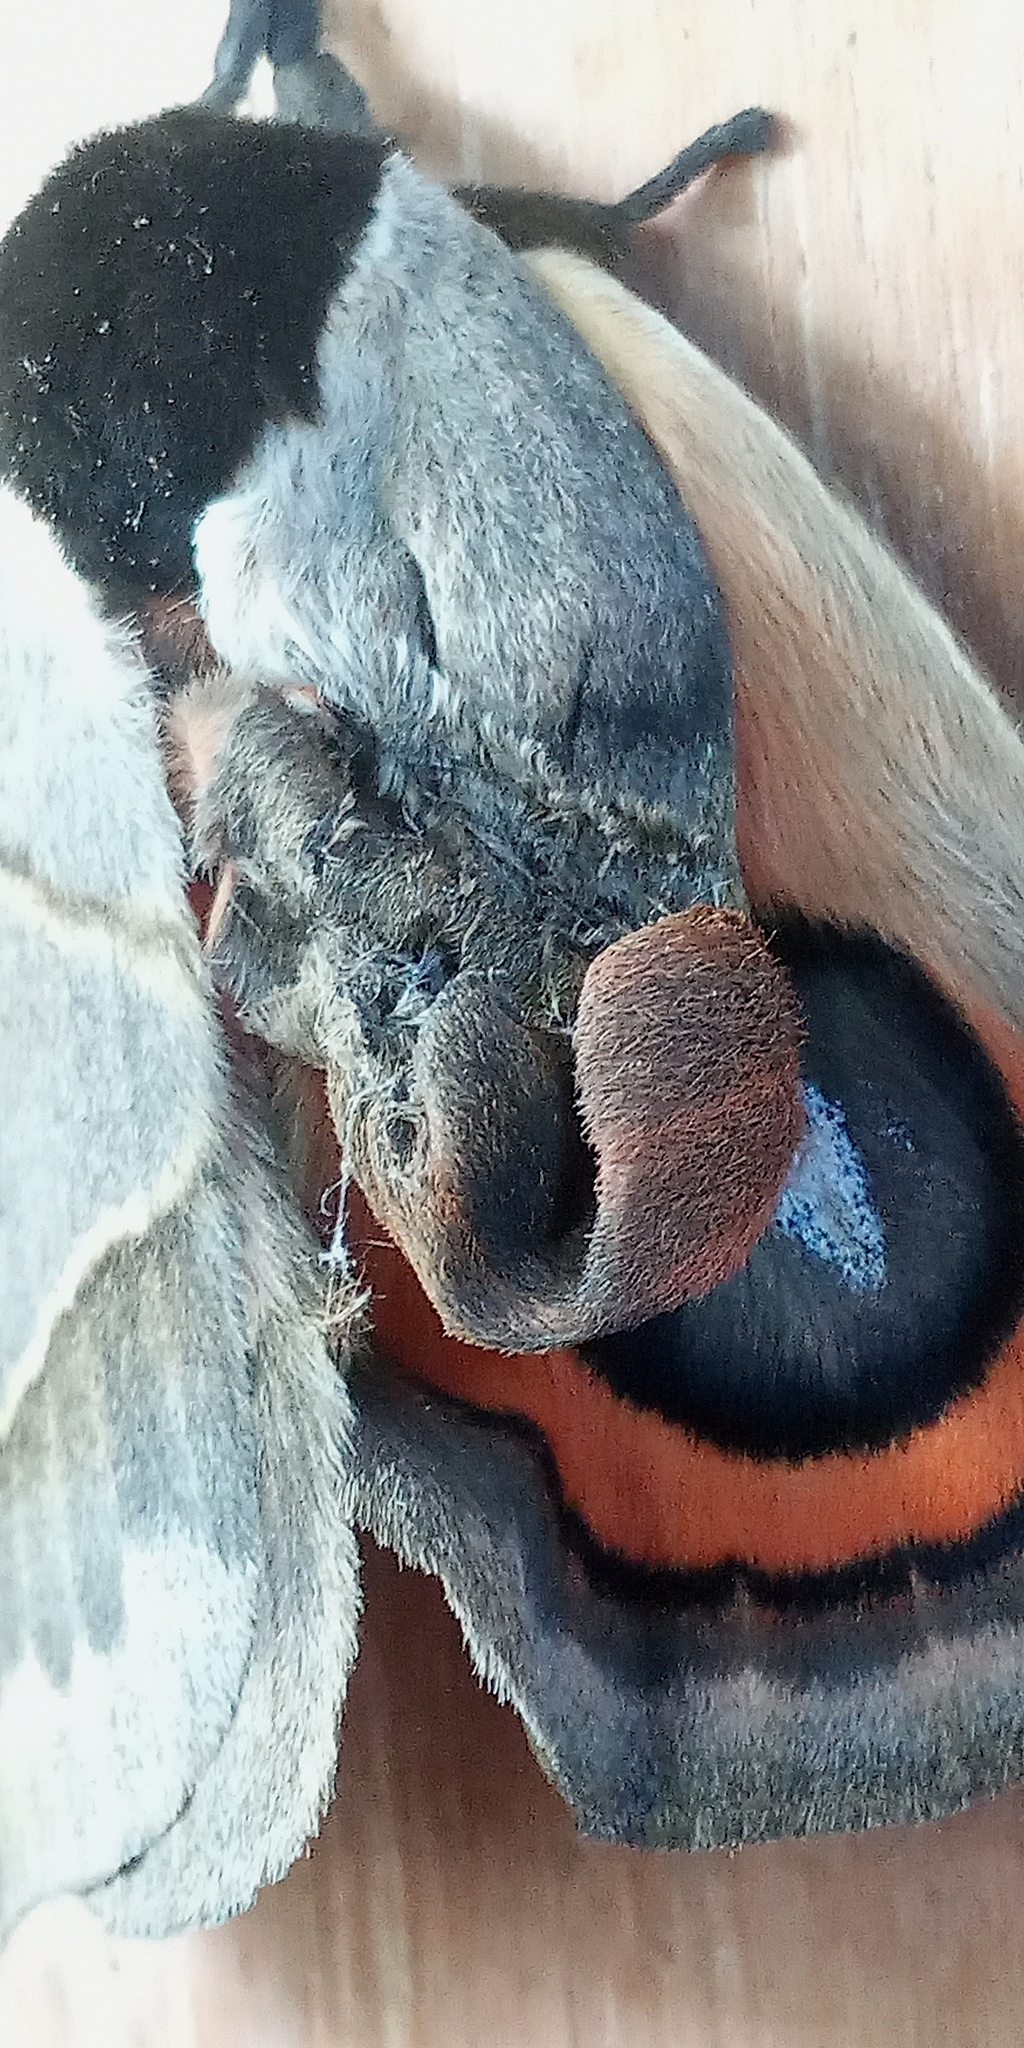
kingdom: Animalia
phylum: Arthropoda
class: Insecta
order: Lepidoptera
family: Saturniidae
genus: Automeris
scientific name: Automeris coresus
